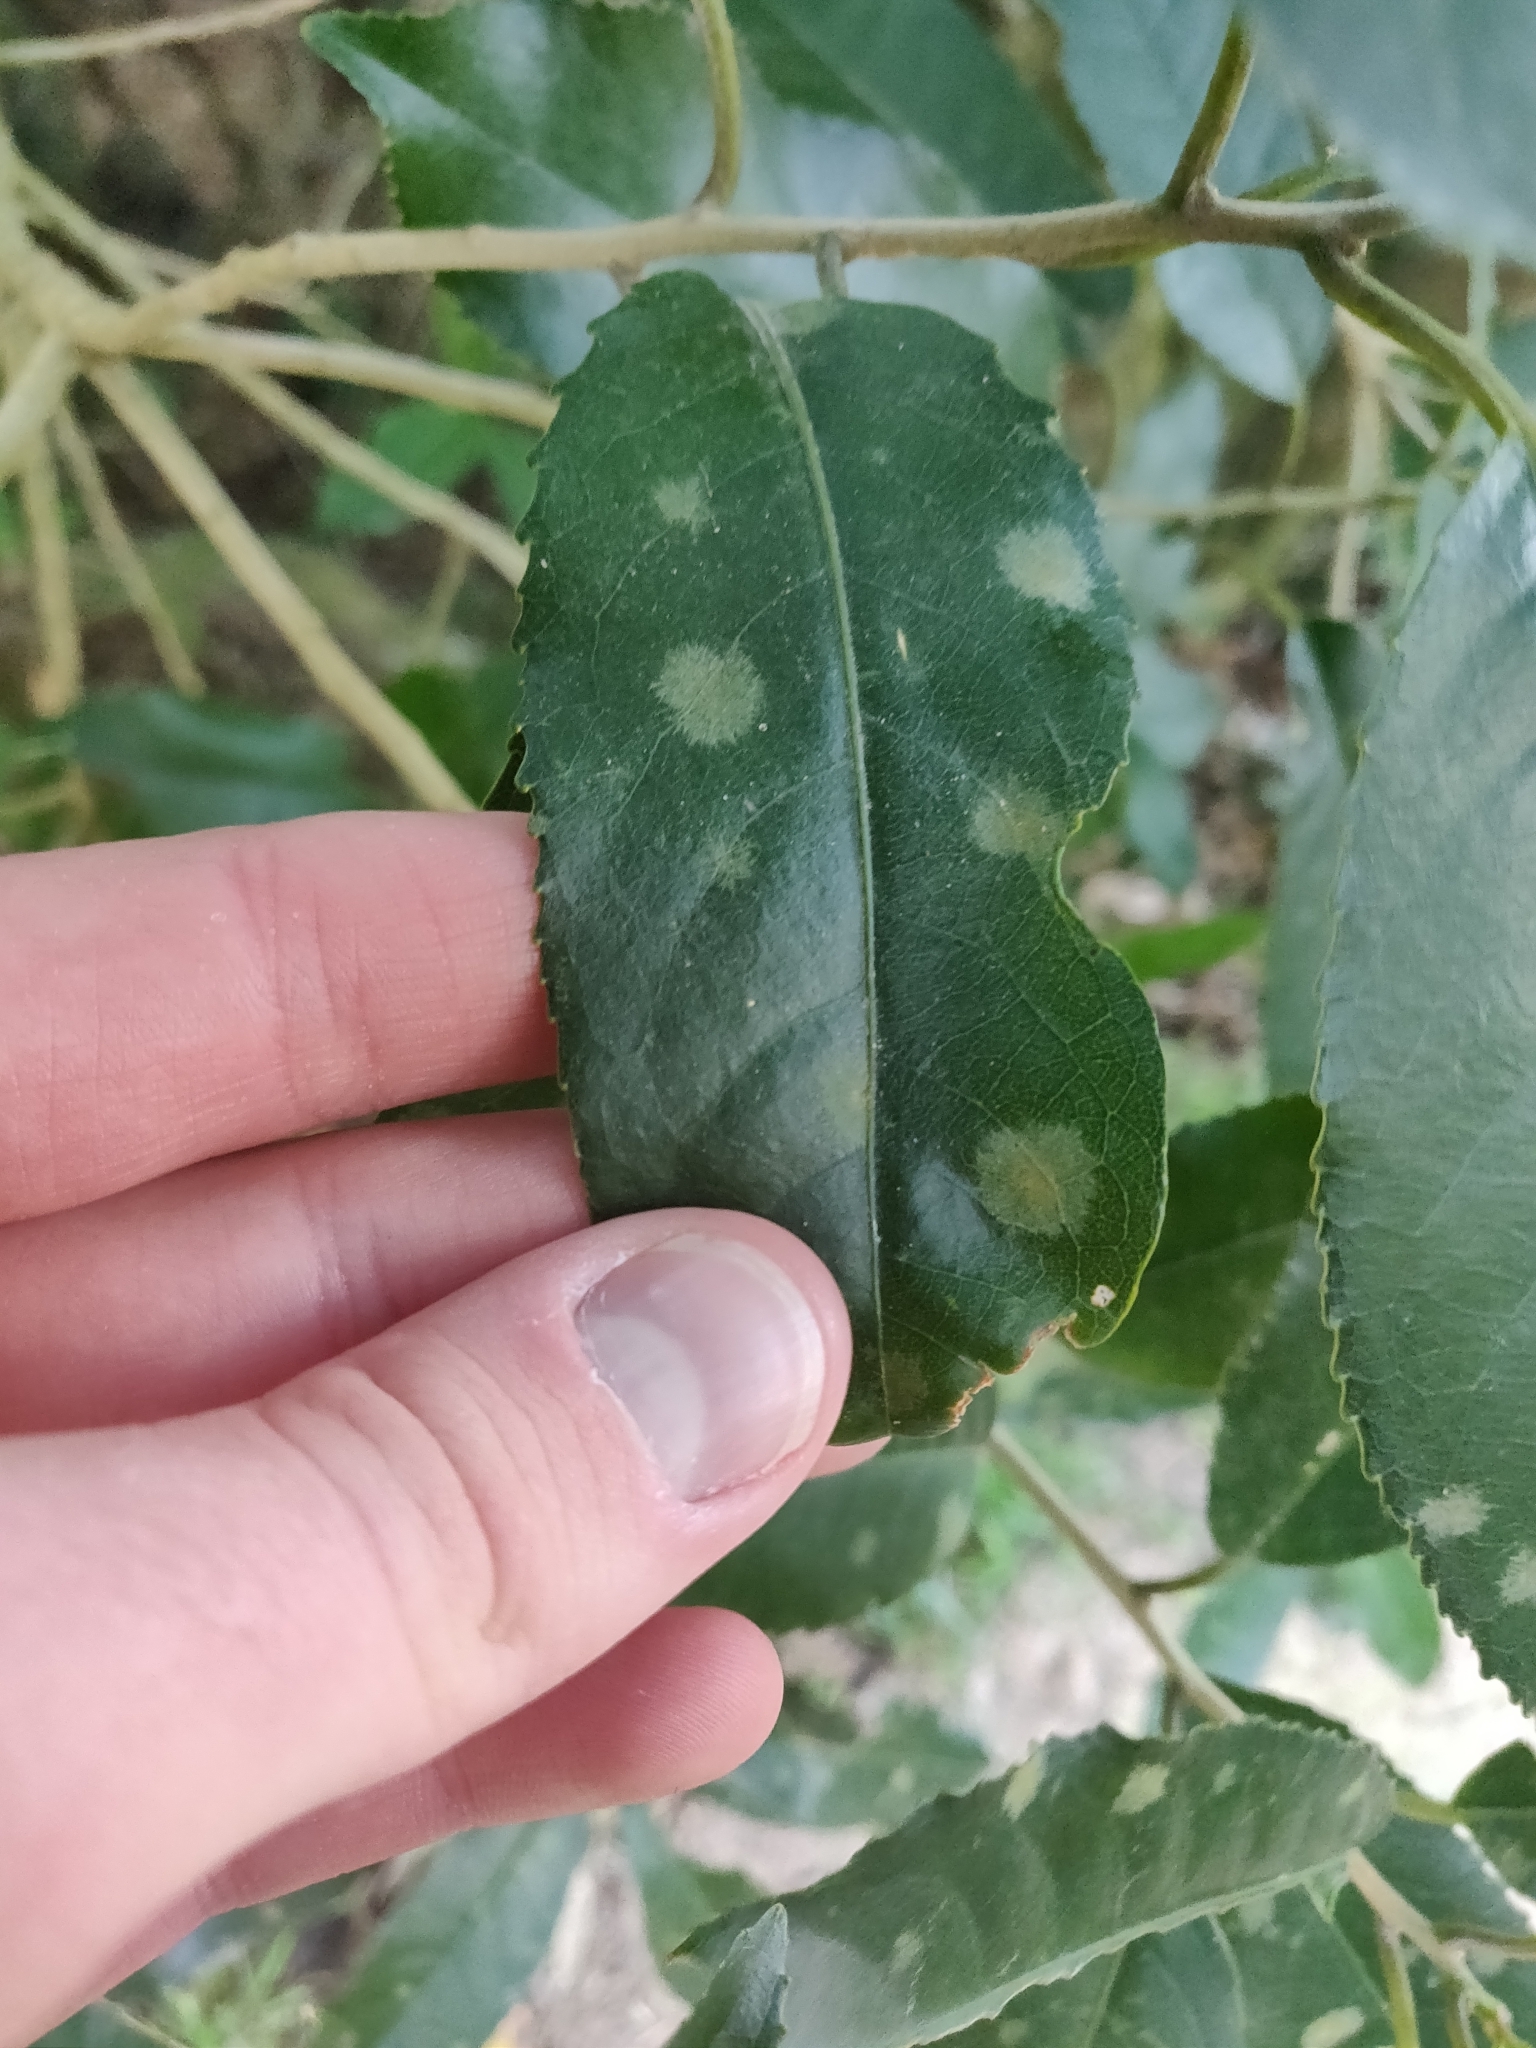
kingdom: Plantae
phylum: Chlorophyta
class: Ulvophyceae
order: Trentepohliales
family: Trentepohliaceae
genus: Cephaleuros
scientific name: Cephaleuros
